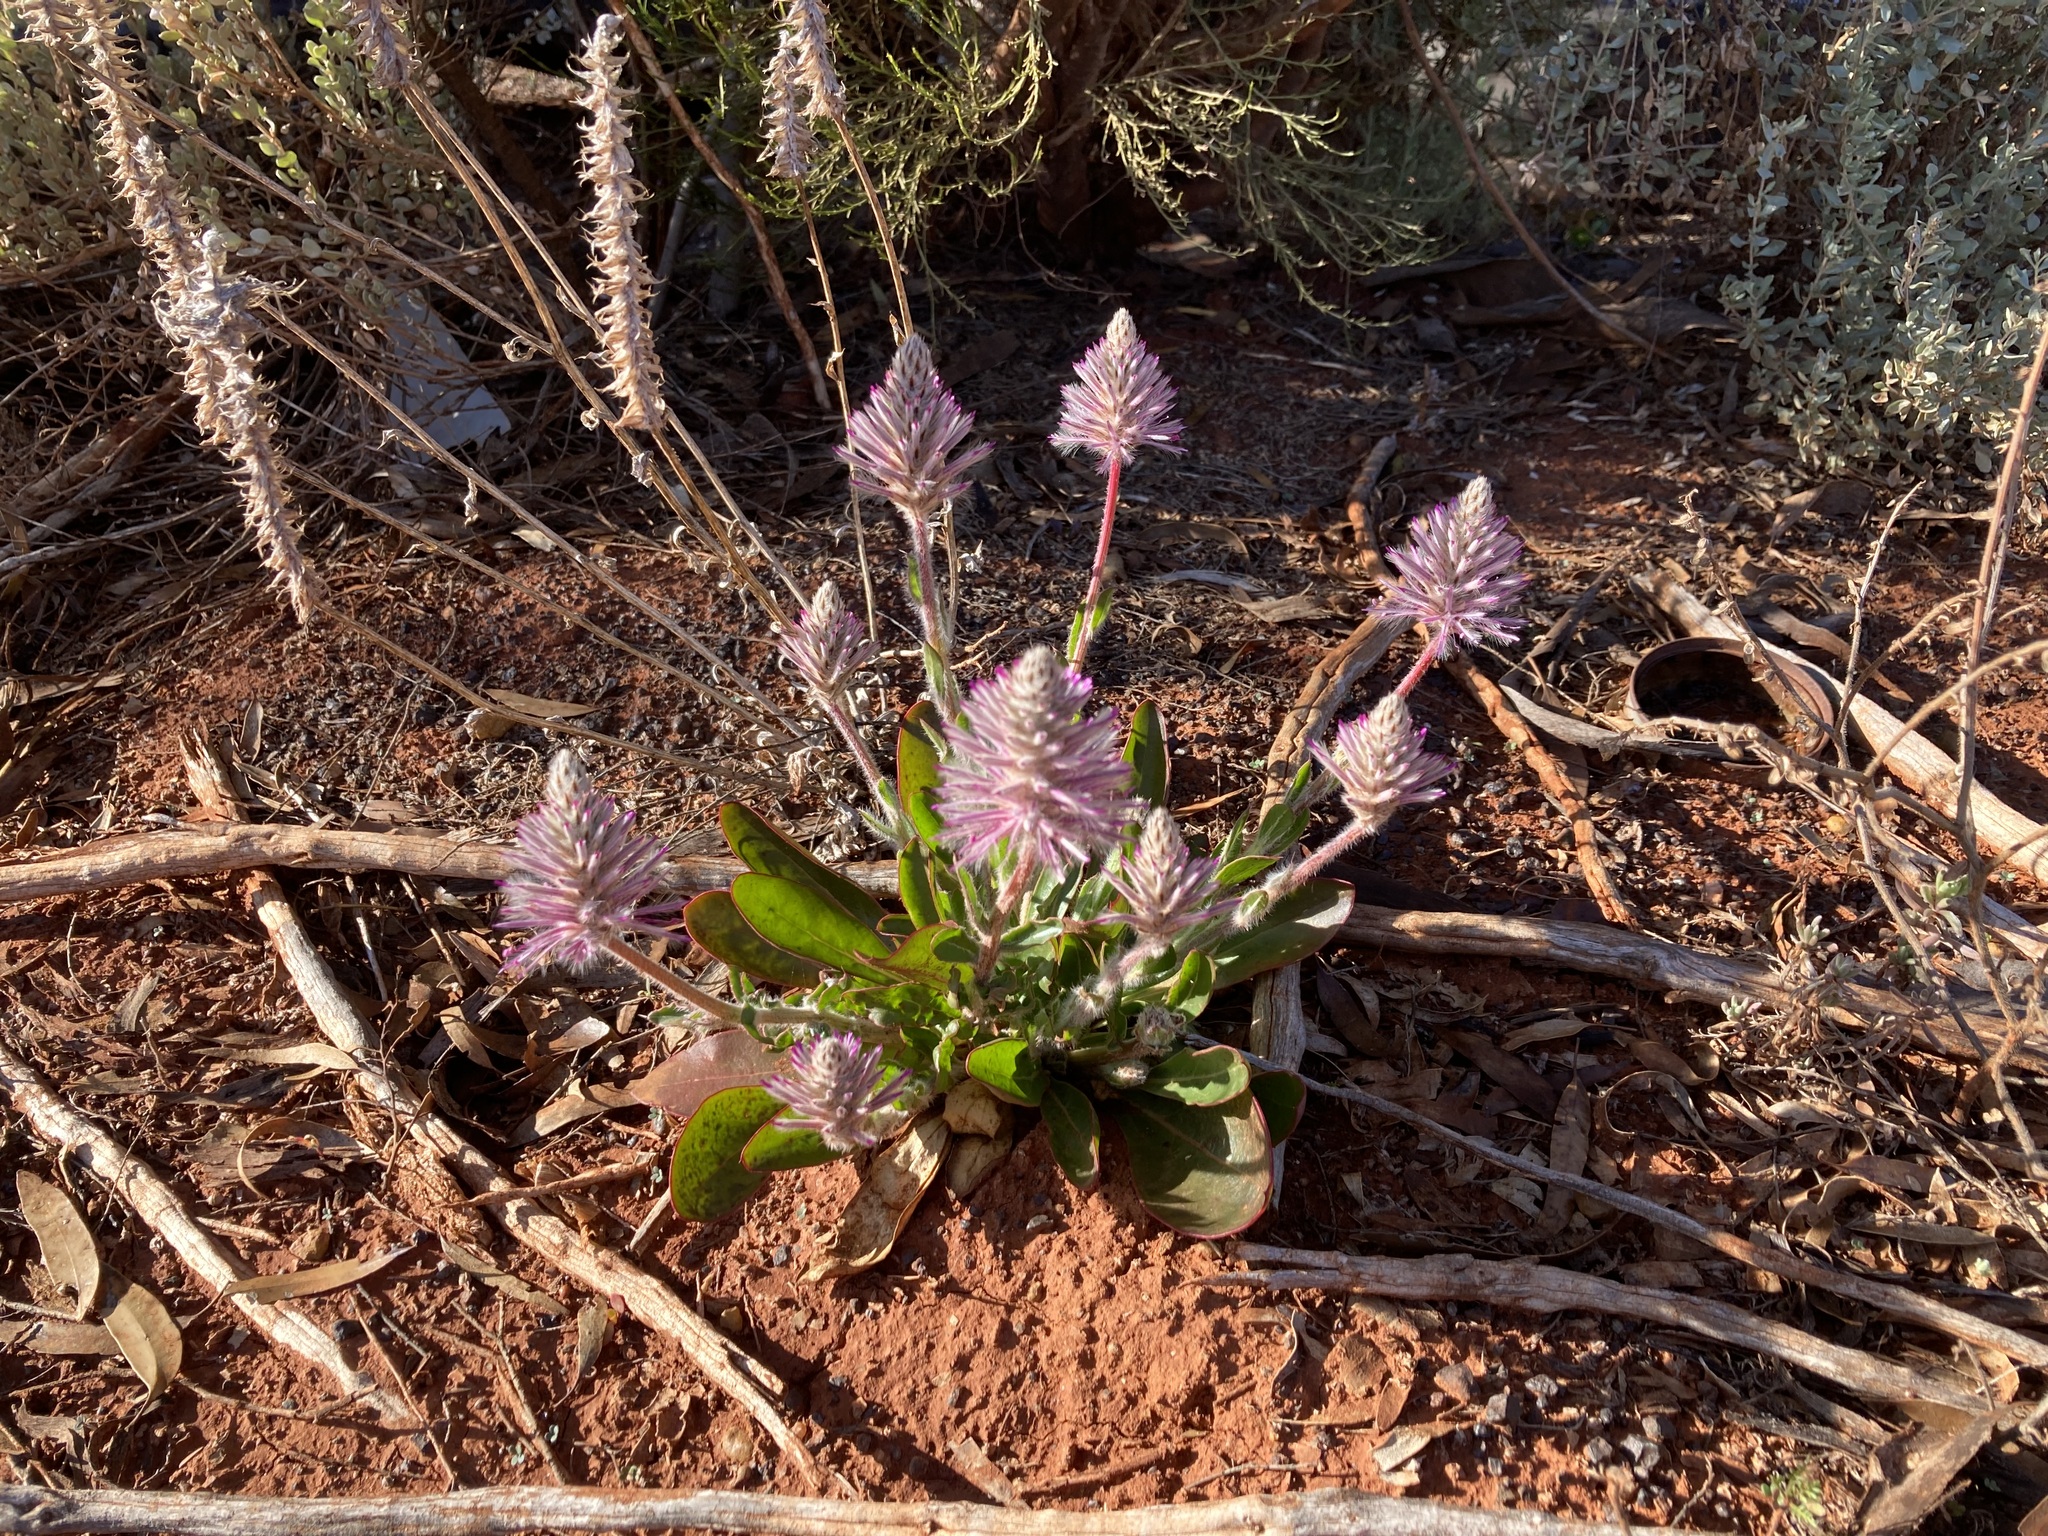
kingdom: Plantae
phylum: Tracheophyta
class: Magnoliopsida
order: Caryophyllales
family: Amaranthaceae
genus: Ptilotus
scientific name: Ptilotus exaltatus
